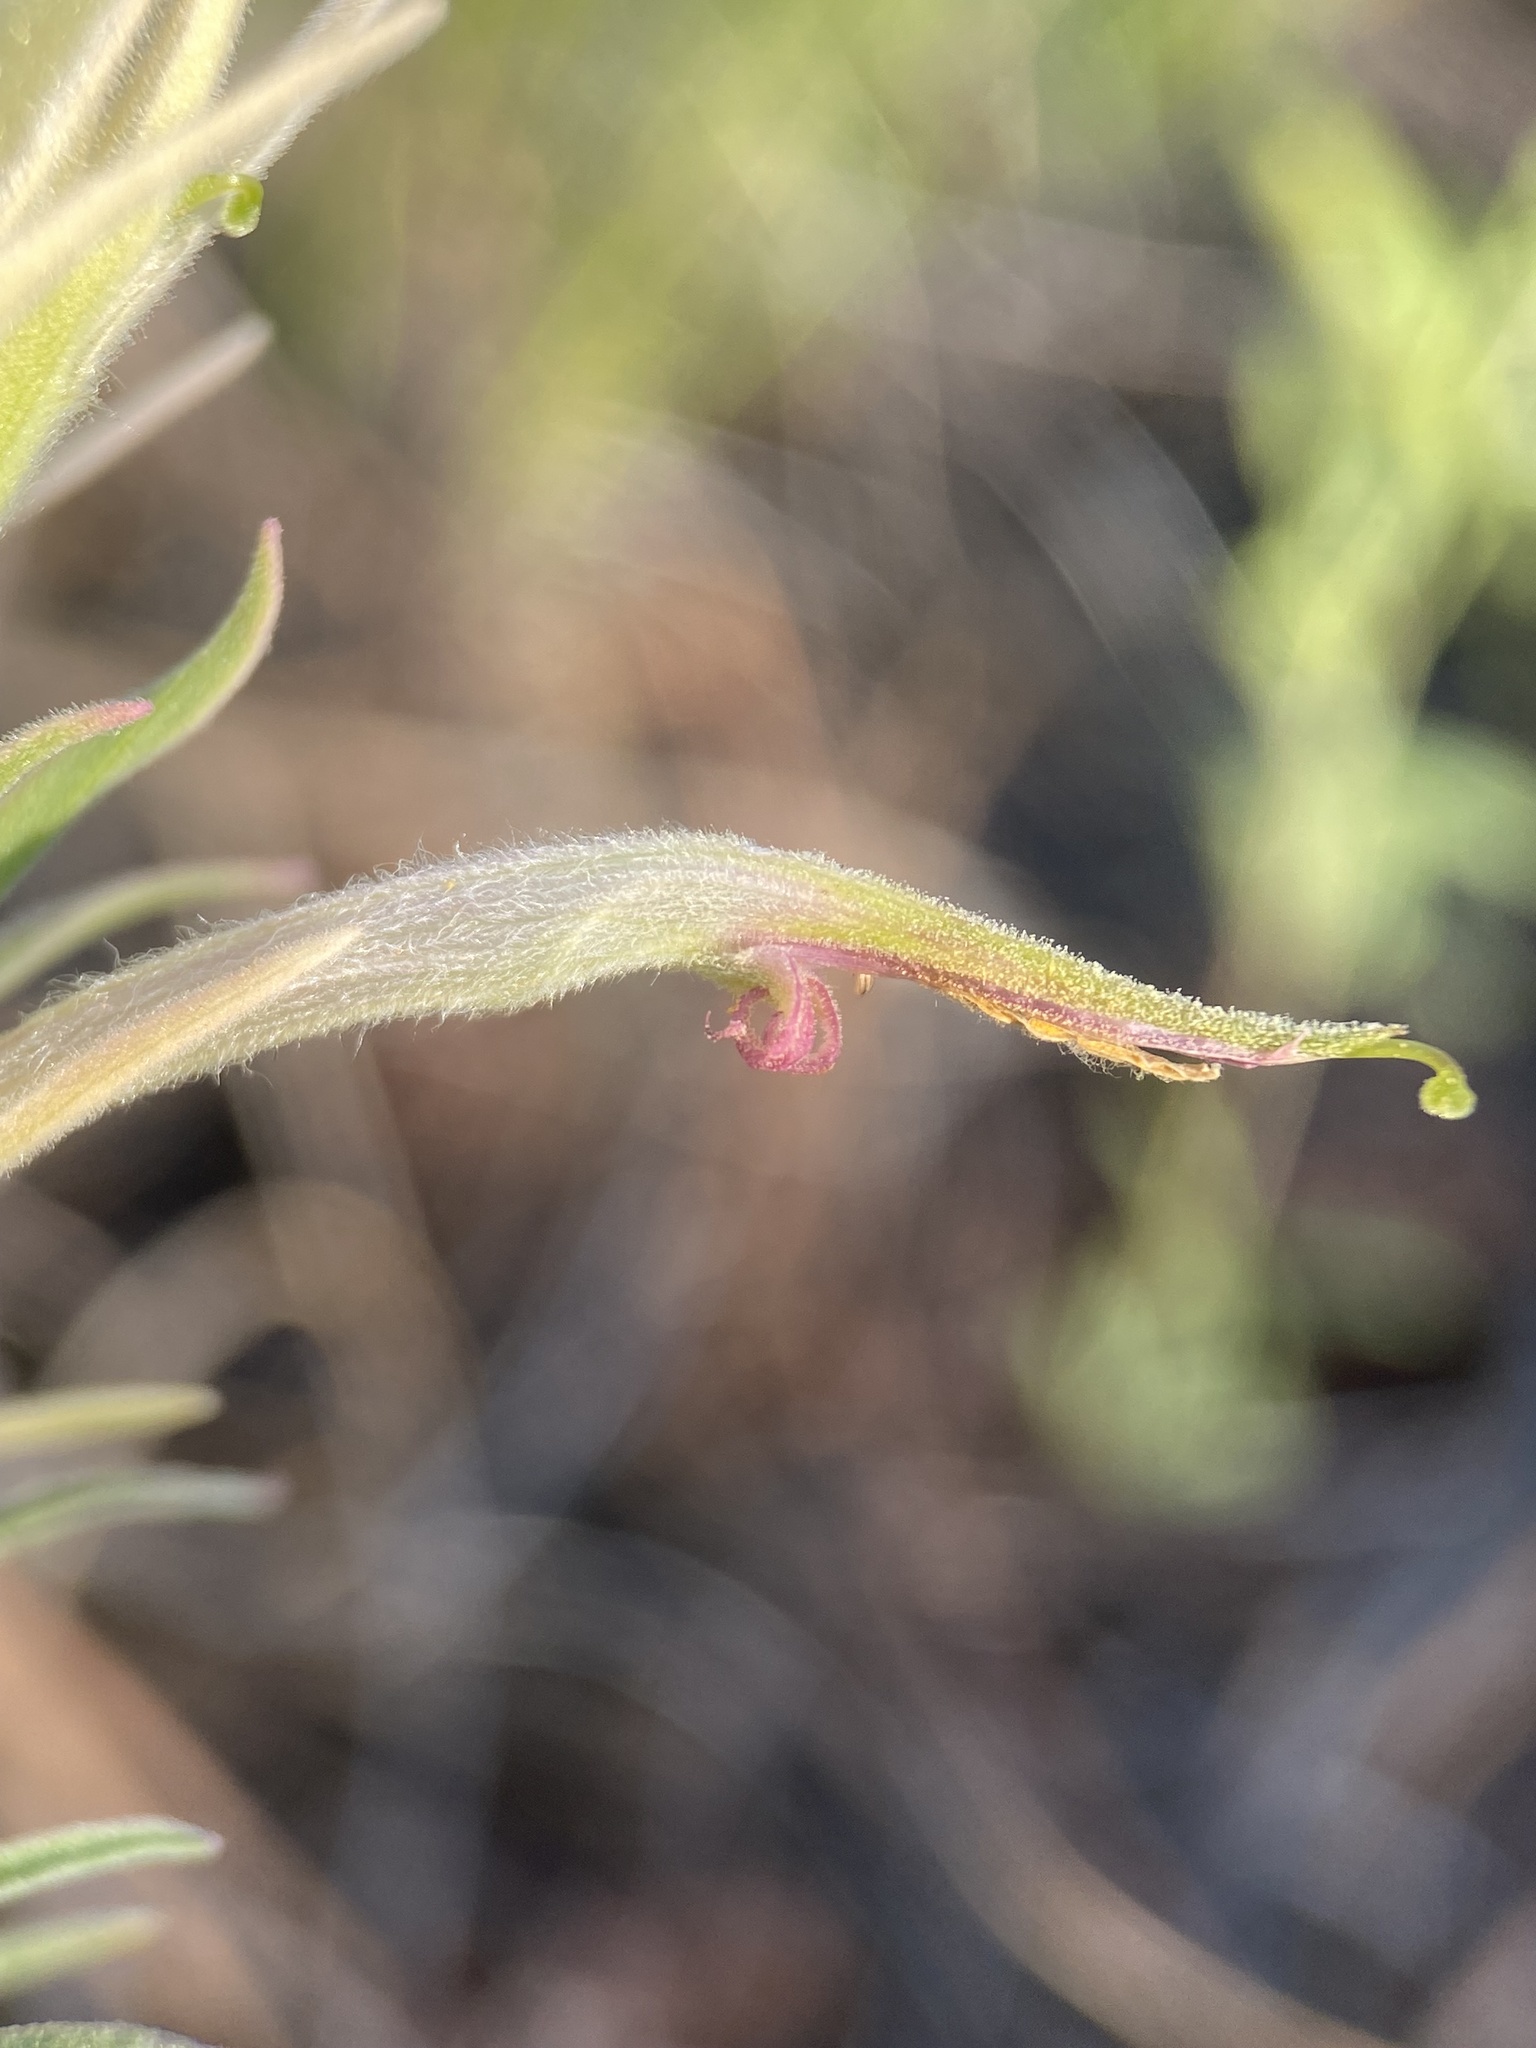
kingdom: Plantae
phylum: Tracheophyta
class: Magnoliopsida
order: Lamiales
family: Orobanchaceae
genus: Castilleja
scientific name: Castilleja sessiliflora
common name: Downy paintbrush
